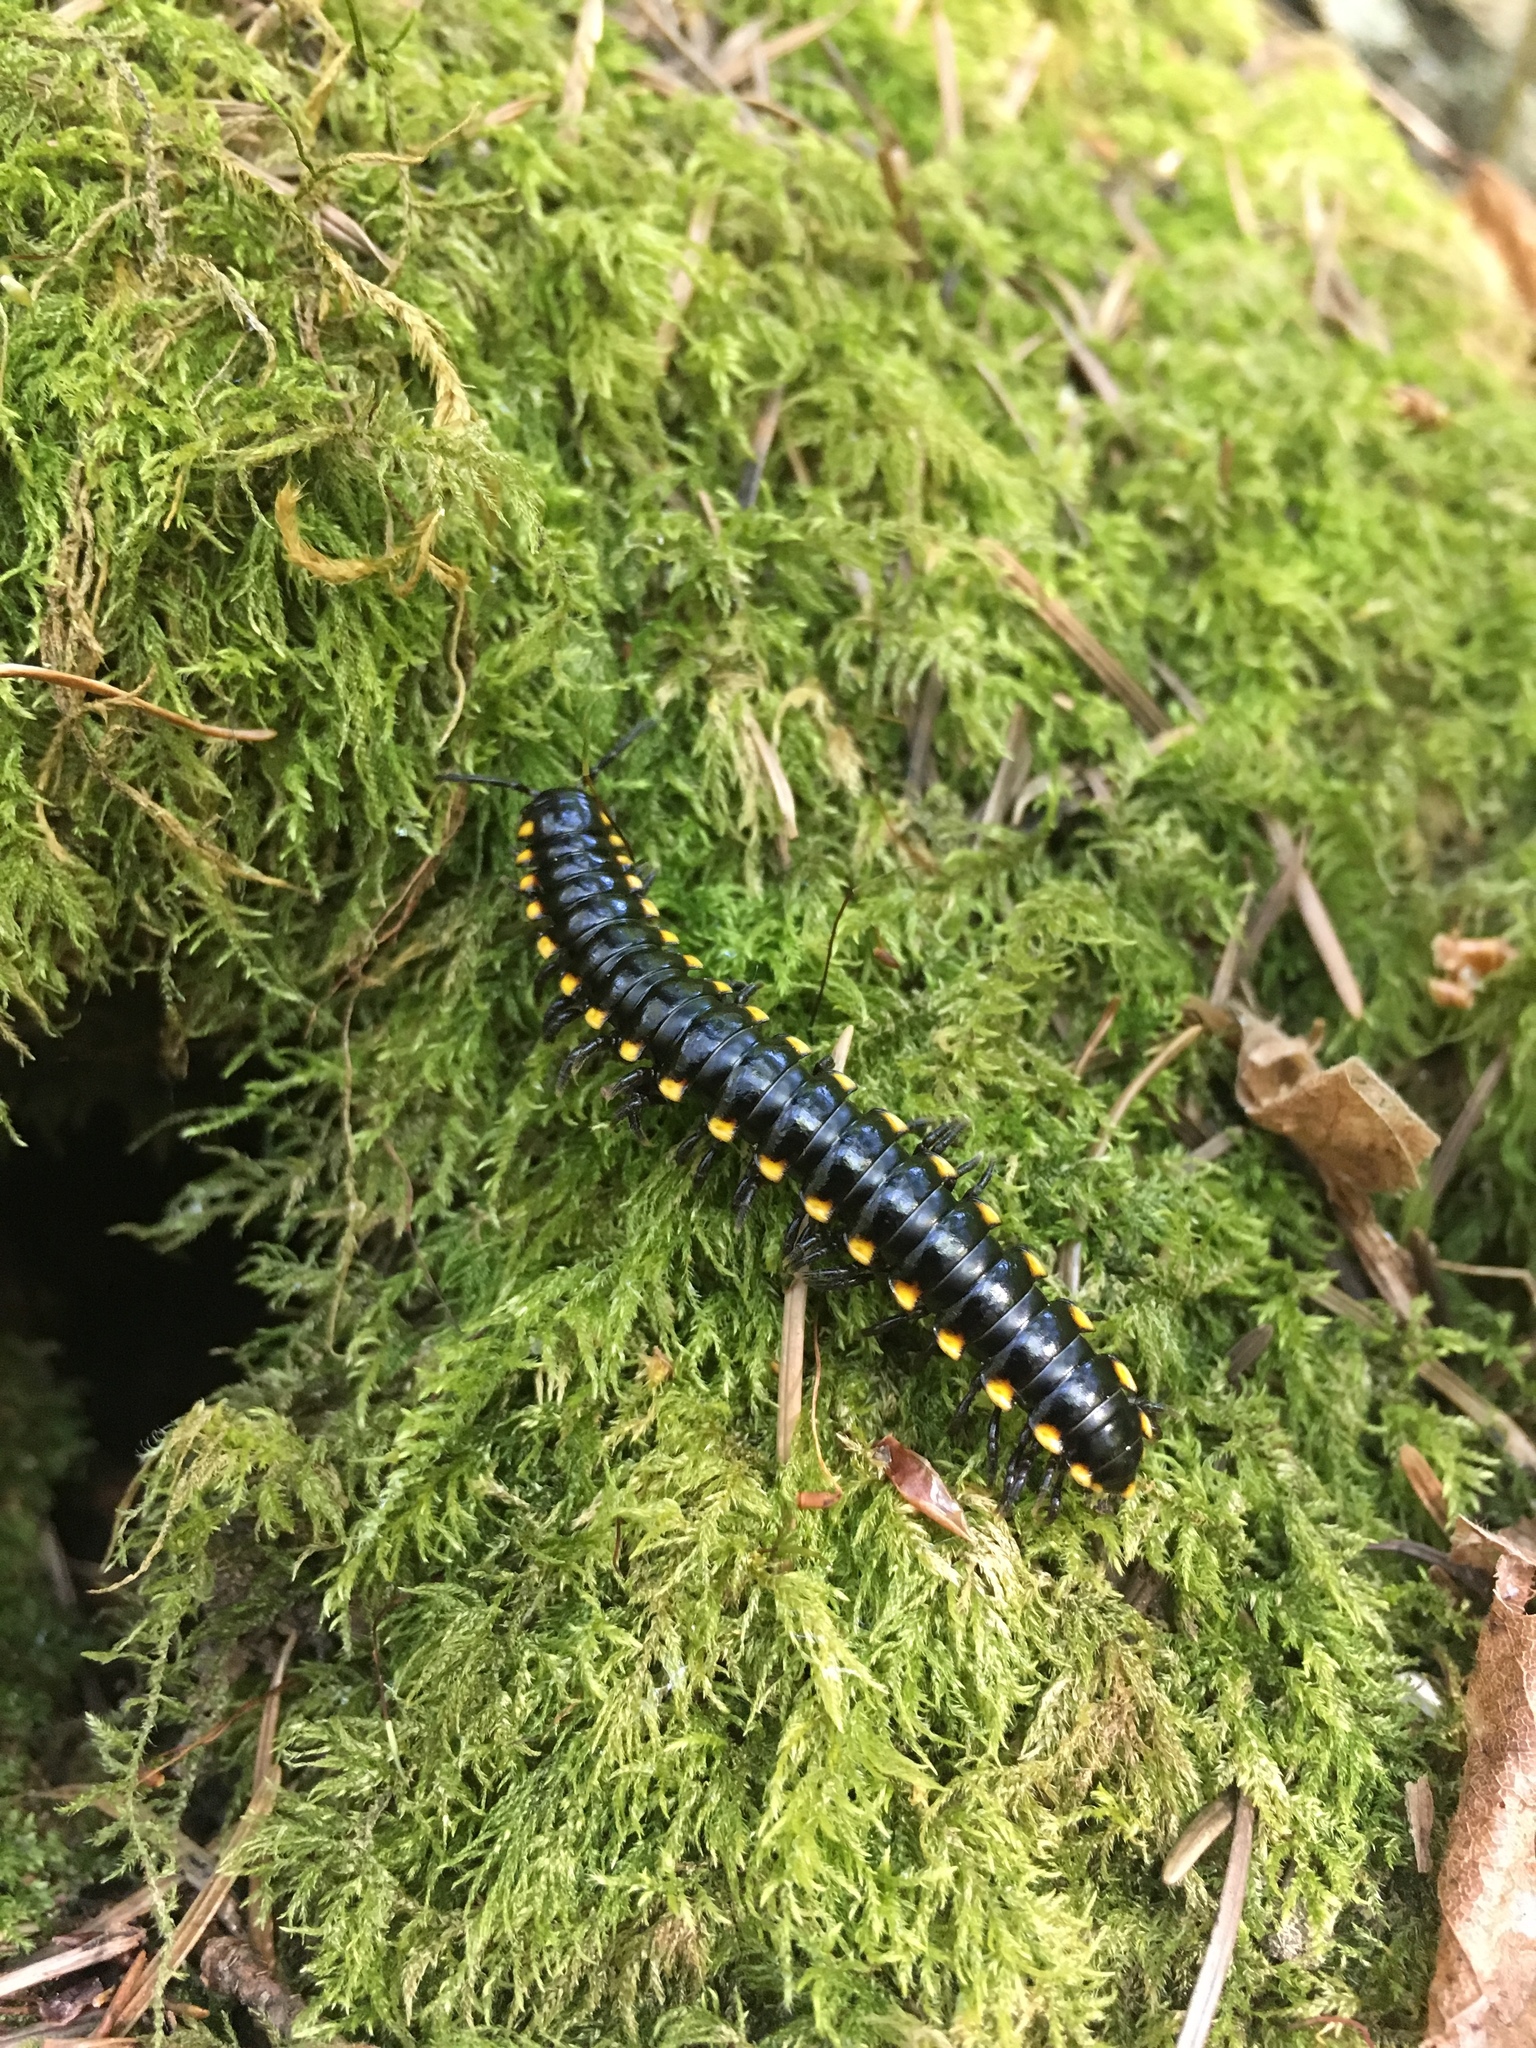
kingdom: Animalia
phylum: Arthropoda
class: Diplopoda
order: Polydesmida
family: Xystodesmidae
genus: Harpaphe
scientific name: Harpaphe haydeniana
